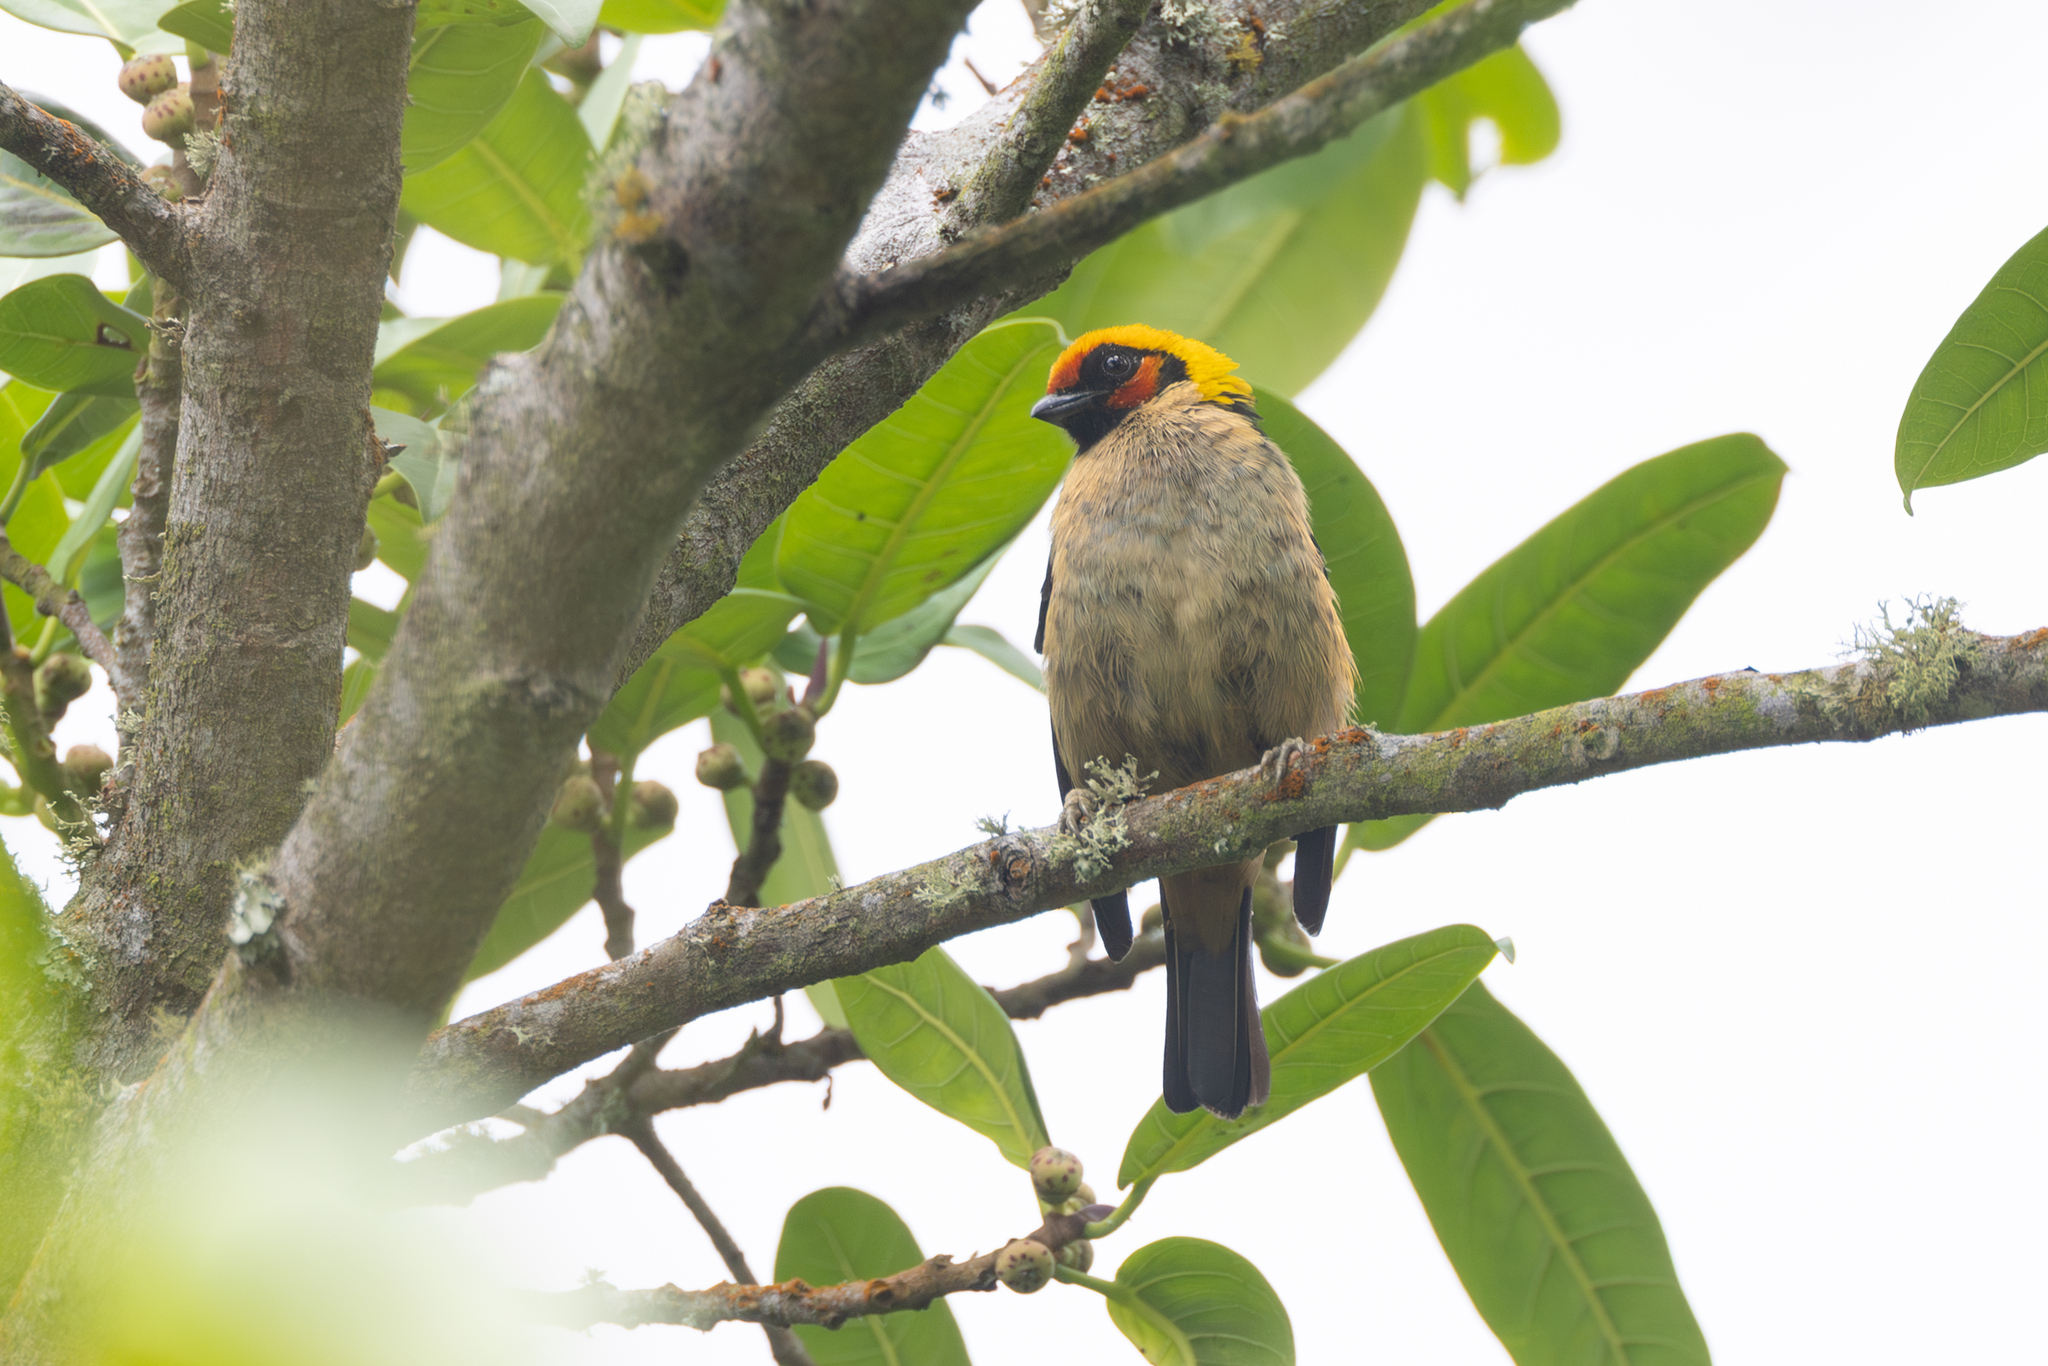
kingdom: Animalia
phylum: Chordata
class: Aves
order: Passeriformes
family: Thraupidae
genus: Tangara
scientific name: Tangara parzudakii
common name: Flame-faced tanager
